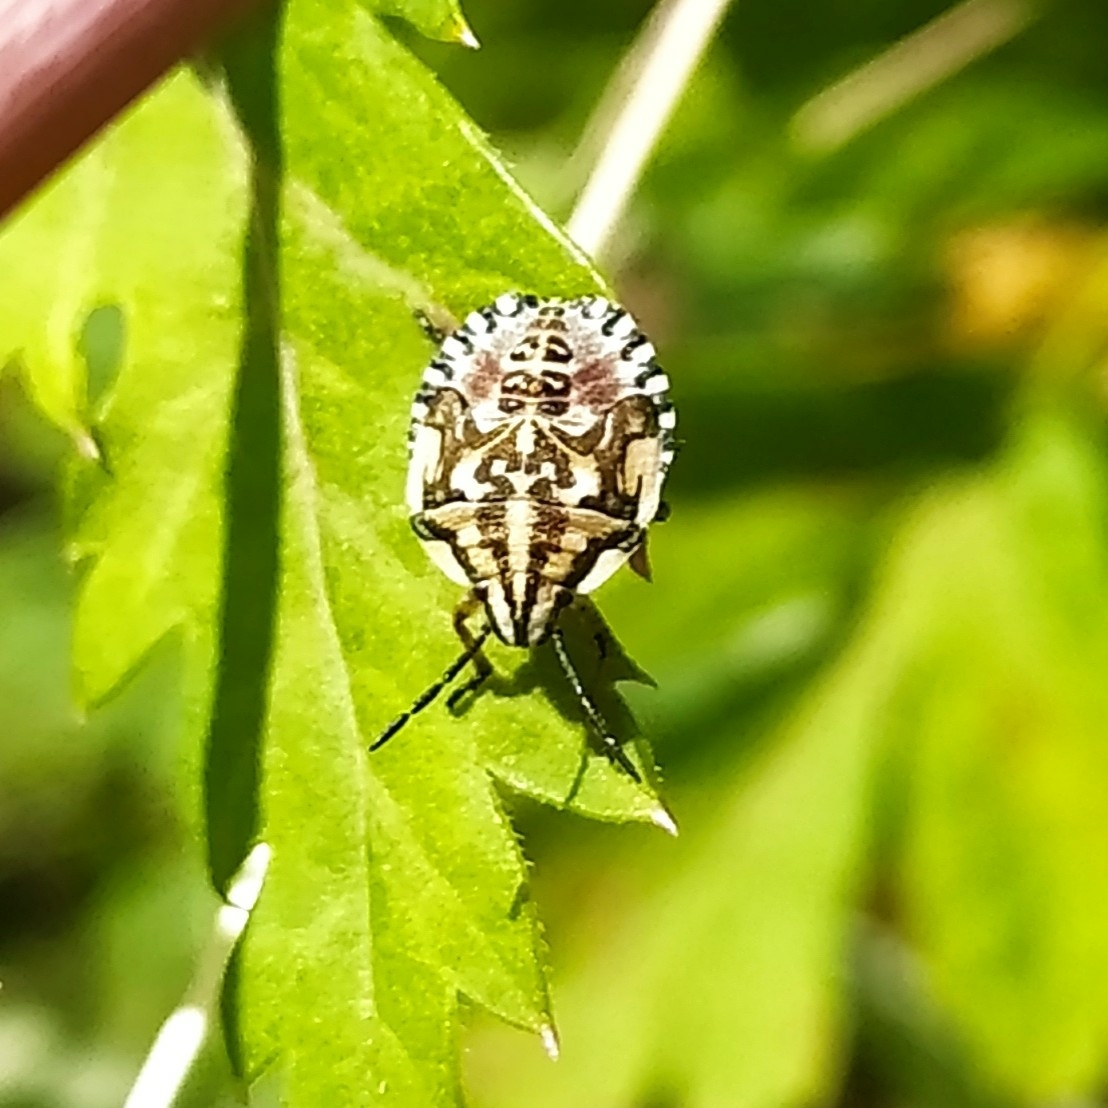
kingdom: Animalia
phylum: Arthropoda
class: Insecta
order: Hemiptera
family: Pentatomidae
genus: Carpocoris
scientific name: Carpocoris purpureipennis
